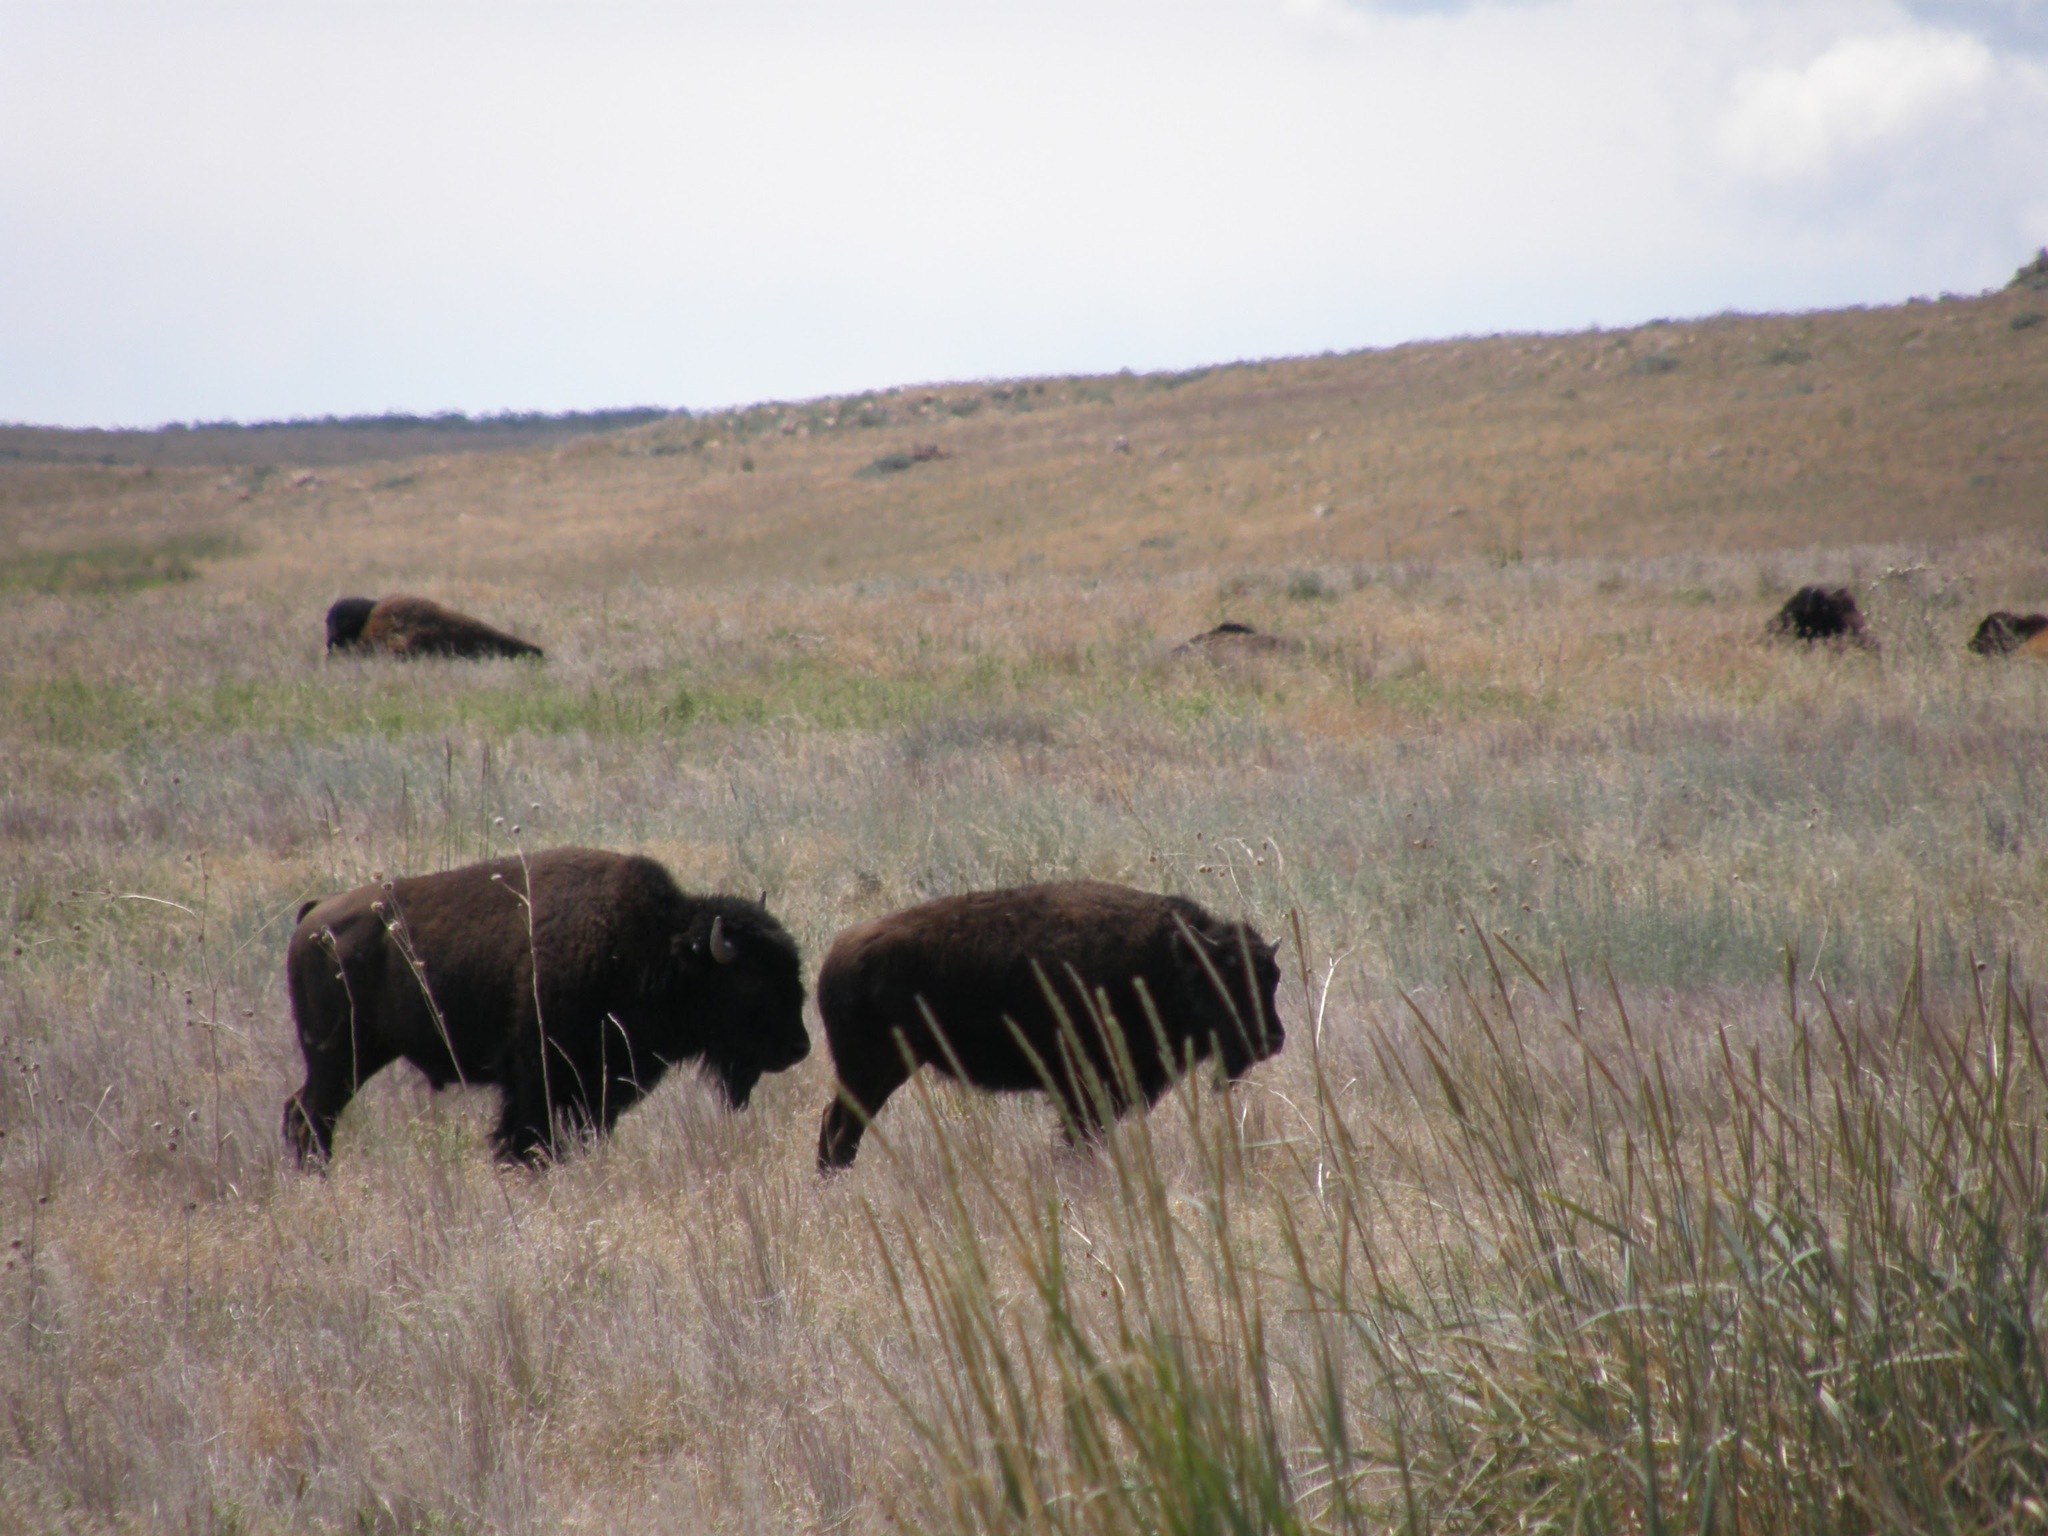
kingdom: Animalia
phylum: Chordata
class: Mammalia
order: Artiodactyla
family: Bovidae
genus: Bison
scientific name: Bison bison
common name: American bison
